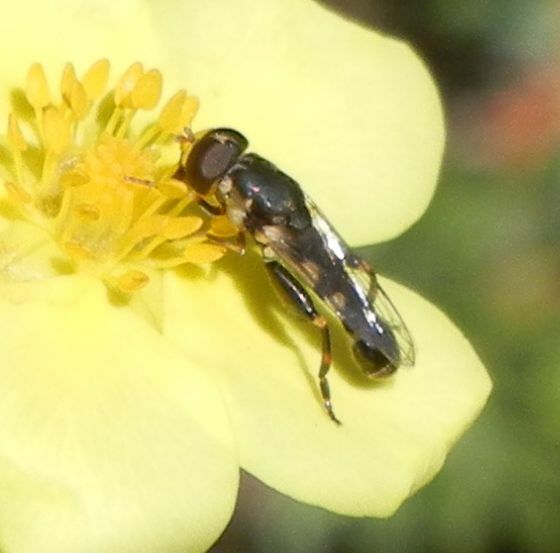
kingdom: Animalia
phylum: Arthropoda
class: Insecta
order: Diptera
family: Syrphidae
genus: Syritta
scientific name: Syritta pipiens
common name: Hover fly
